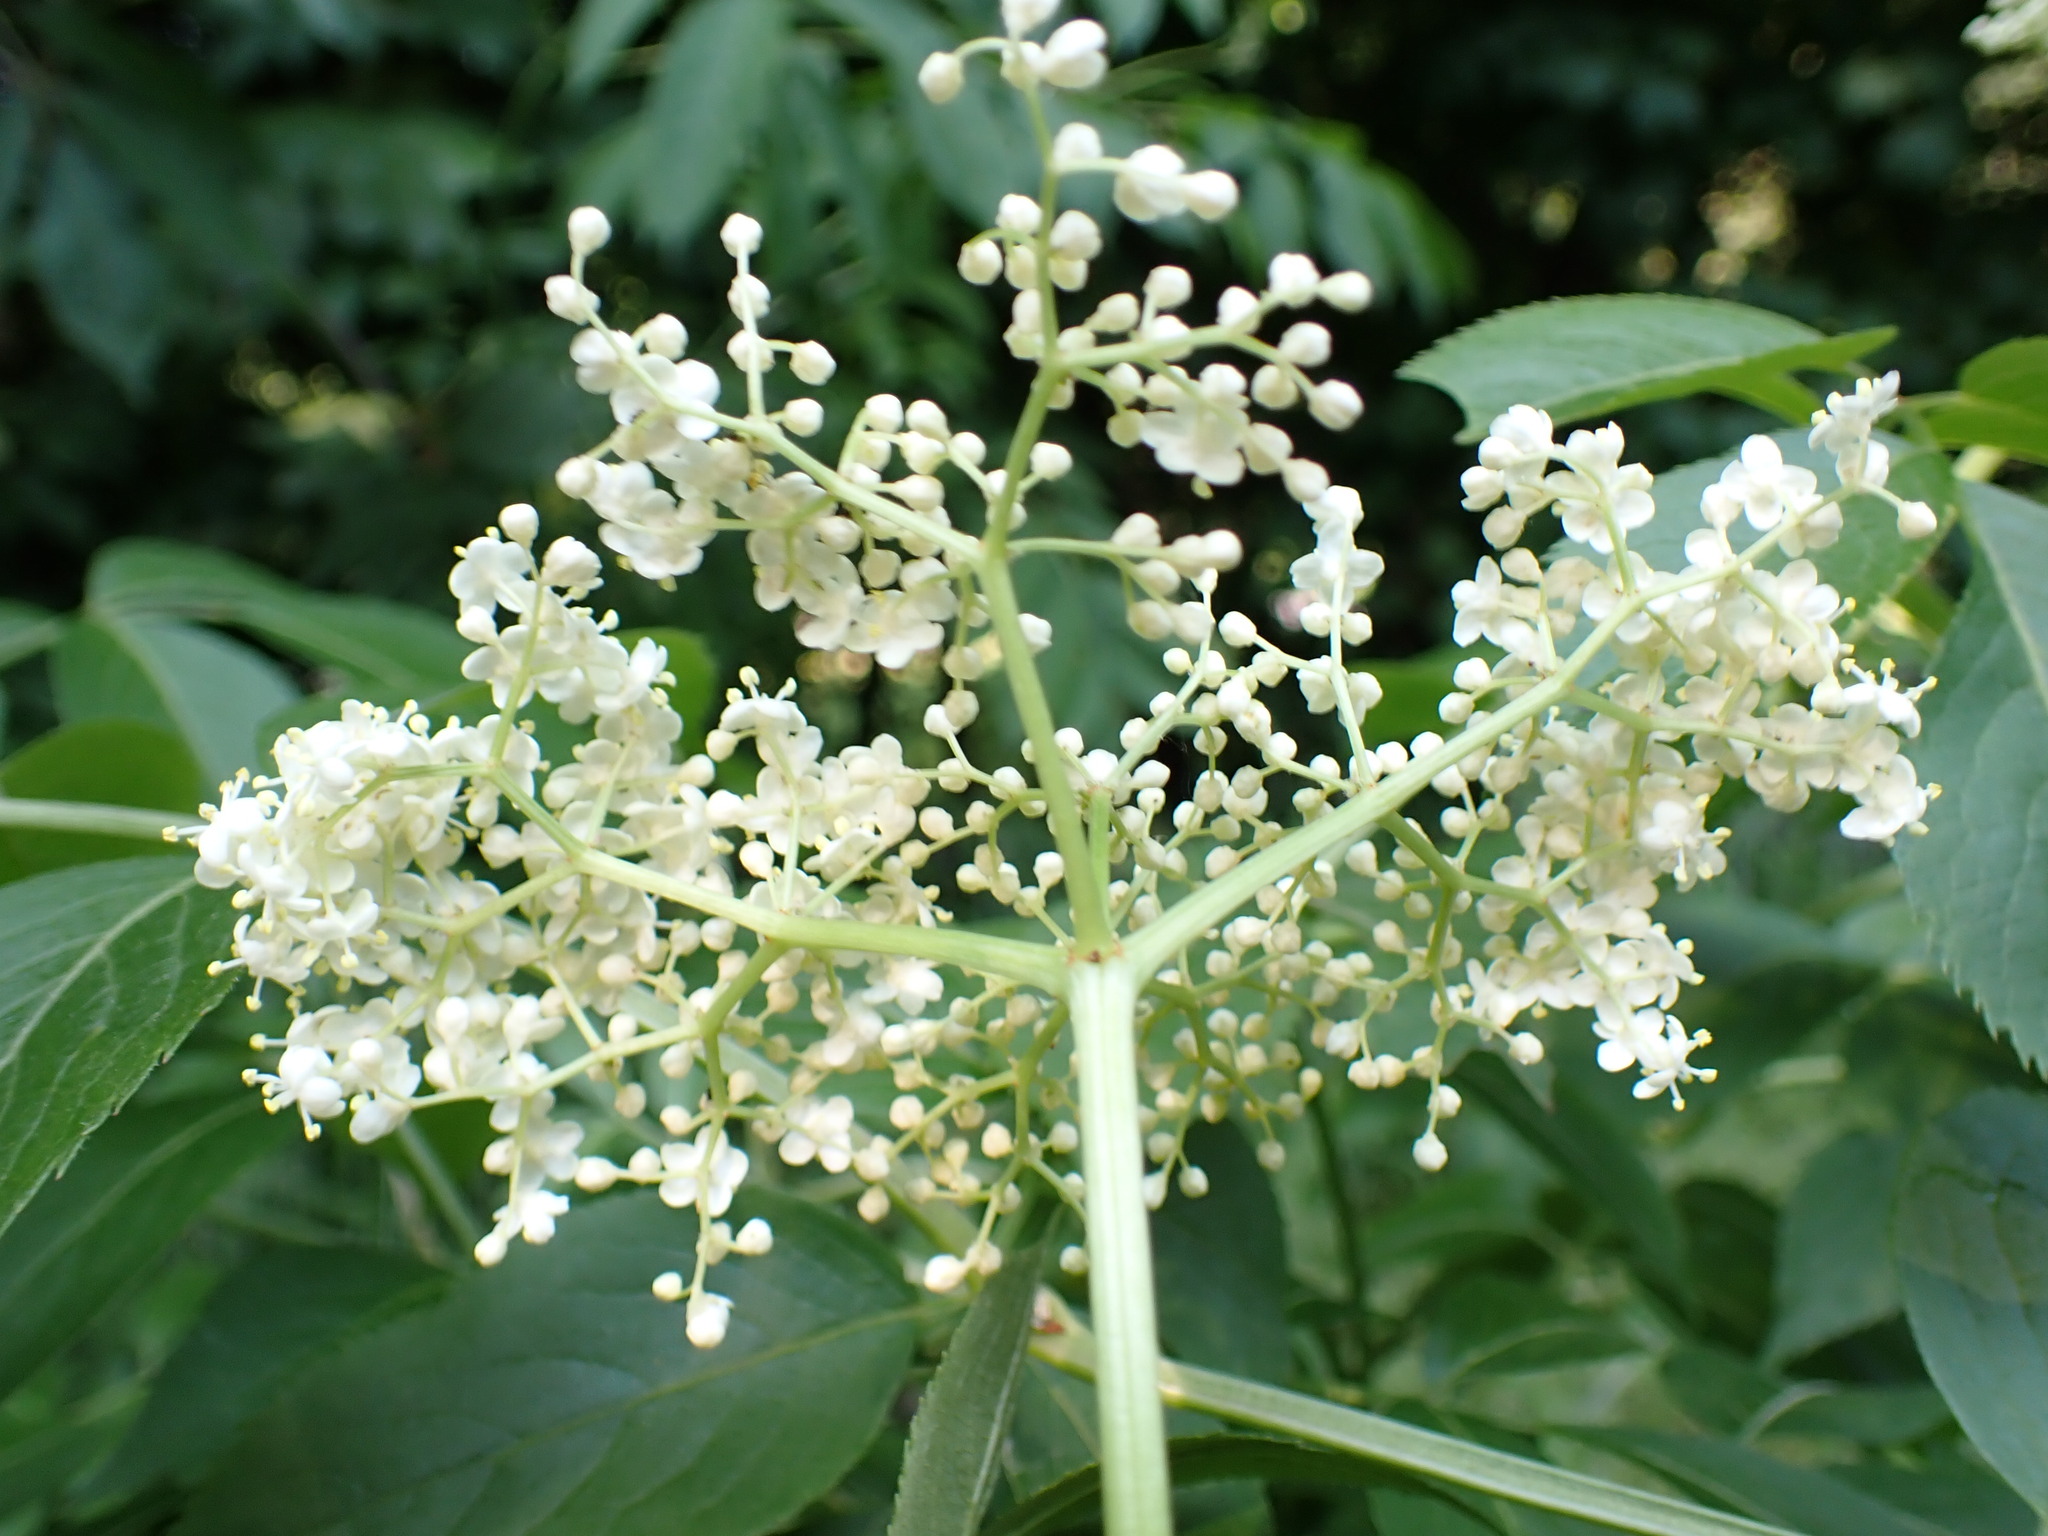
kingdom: Plantae
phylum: Tracheophyta
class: Magnoliopsida
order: Dipsacales
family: Viburnaceae
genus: Sambucus
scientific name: Sambucus canadensis
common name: American elder
